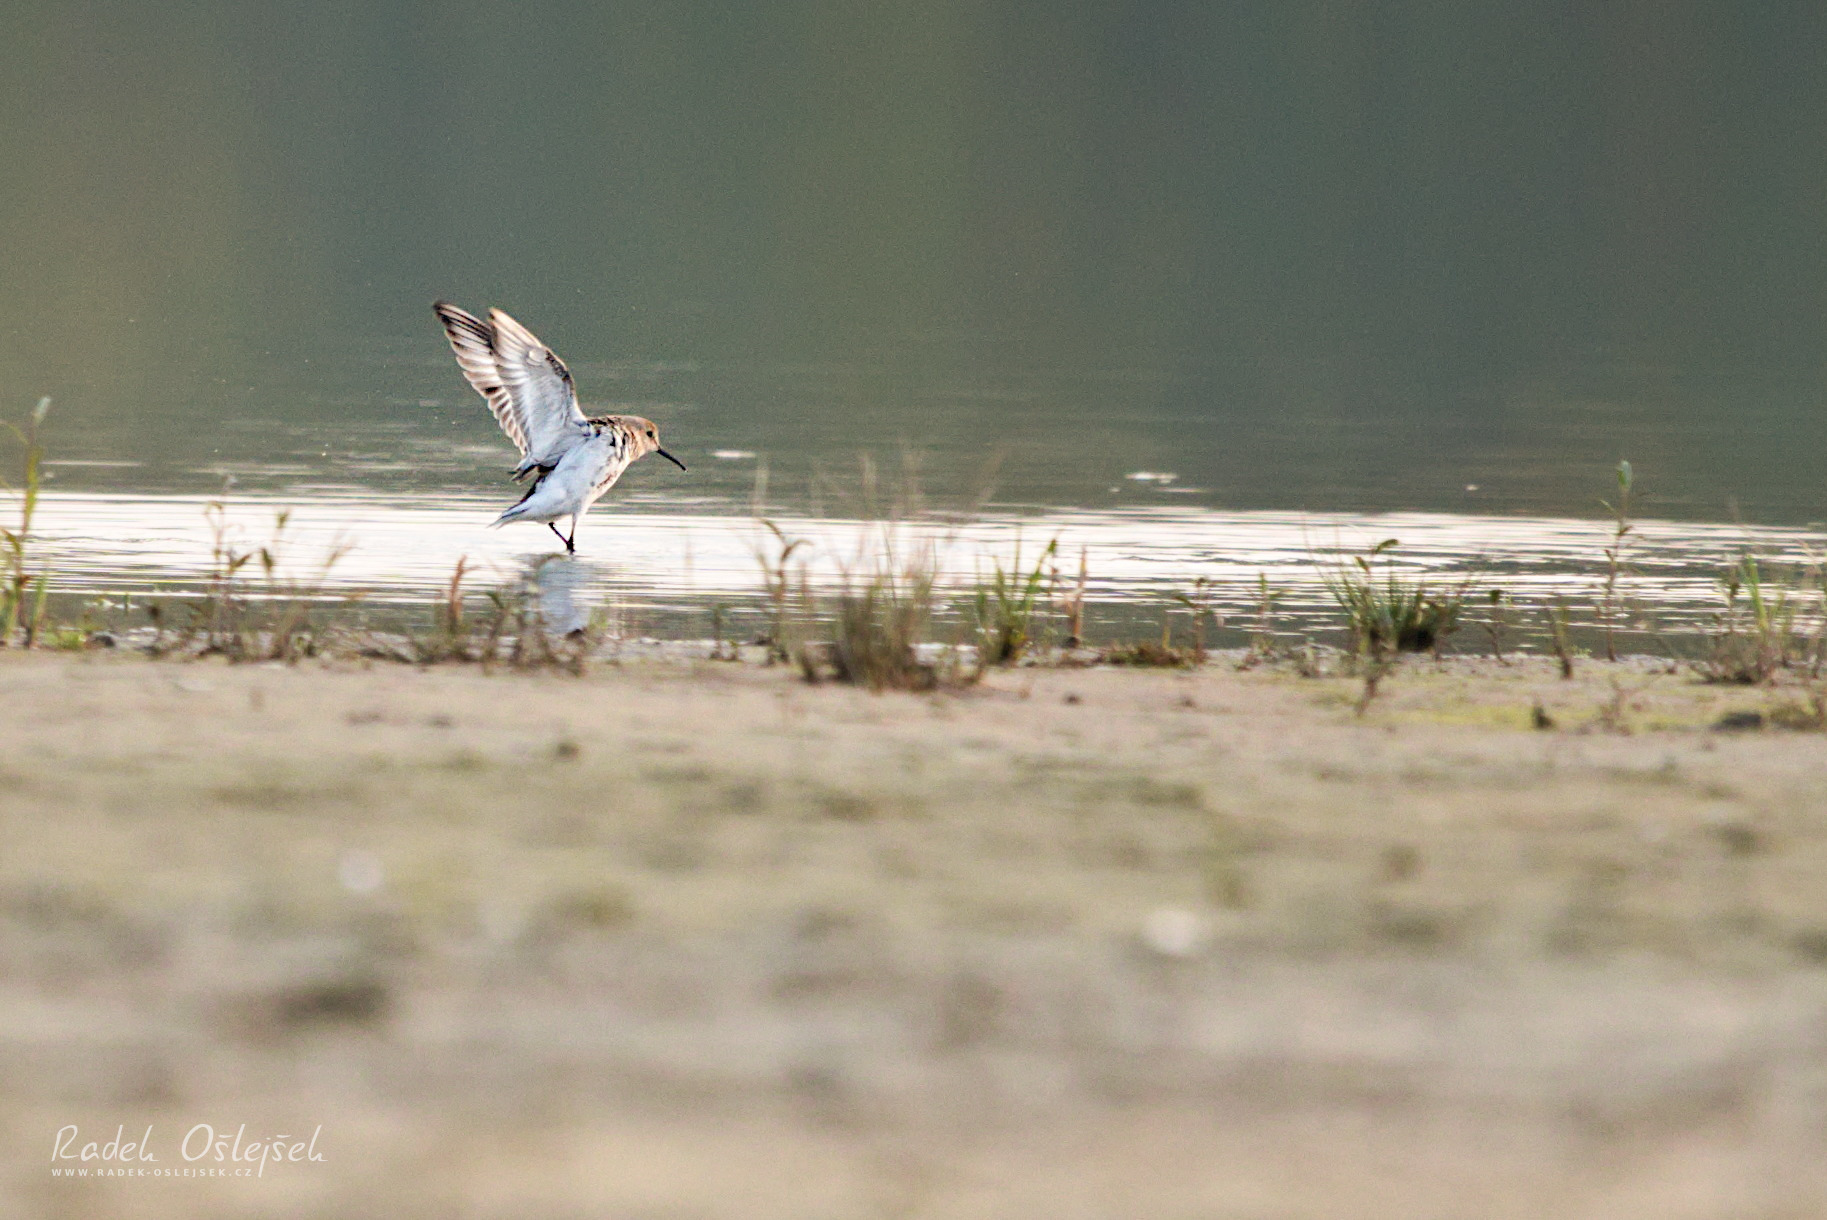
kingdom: Animalia
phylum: Chordata
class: Aves
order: Charadriiformes
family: Scolopacidae
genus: Calidris
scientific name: Calidris alpina
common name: Dunlin
